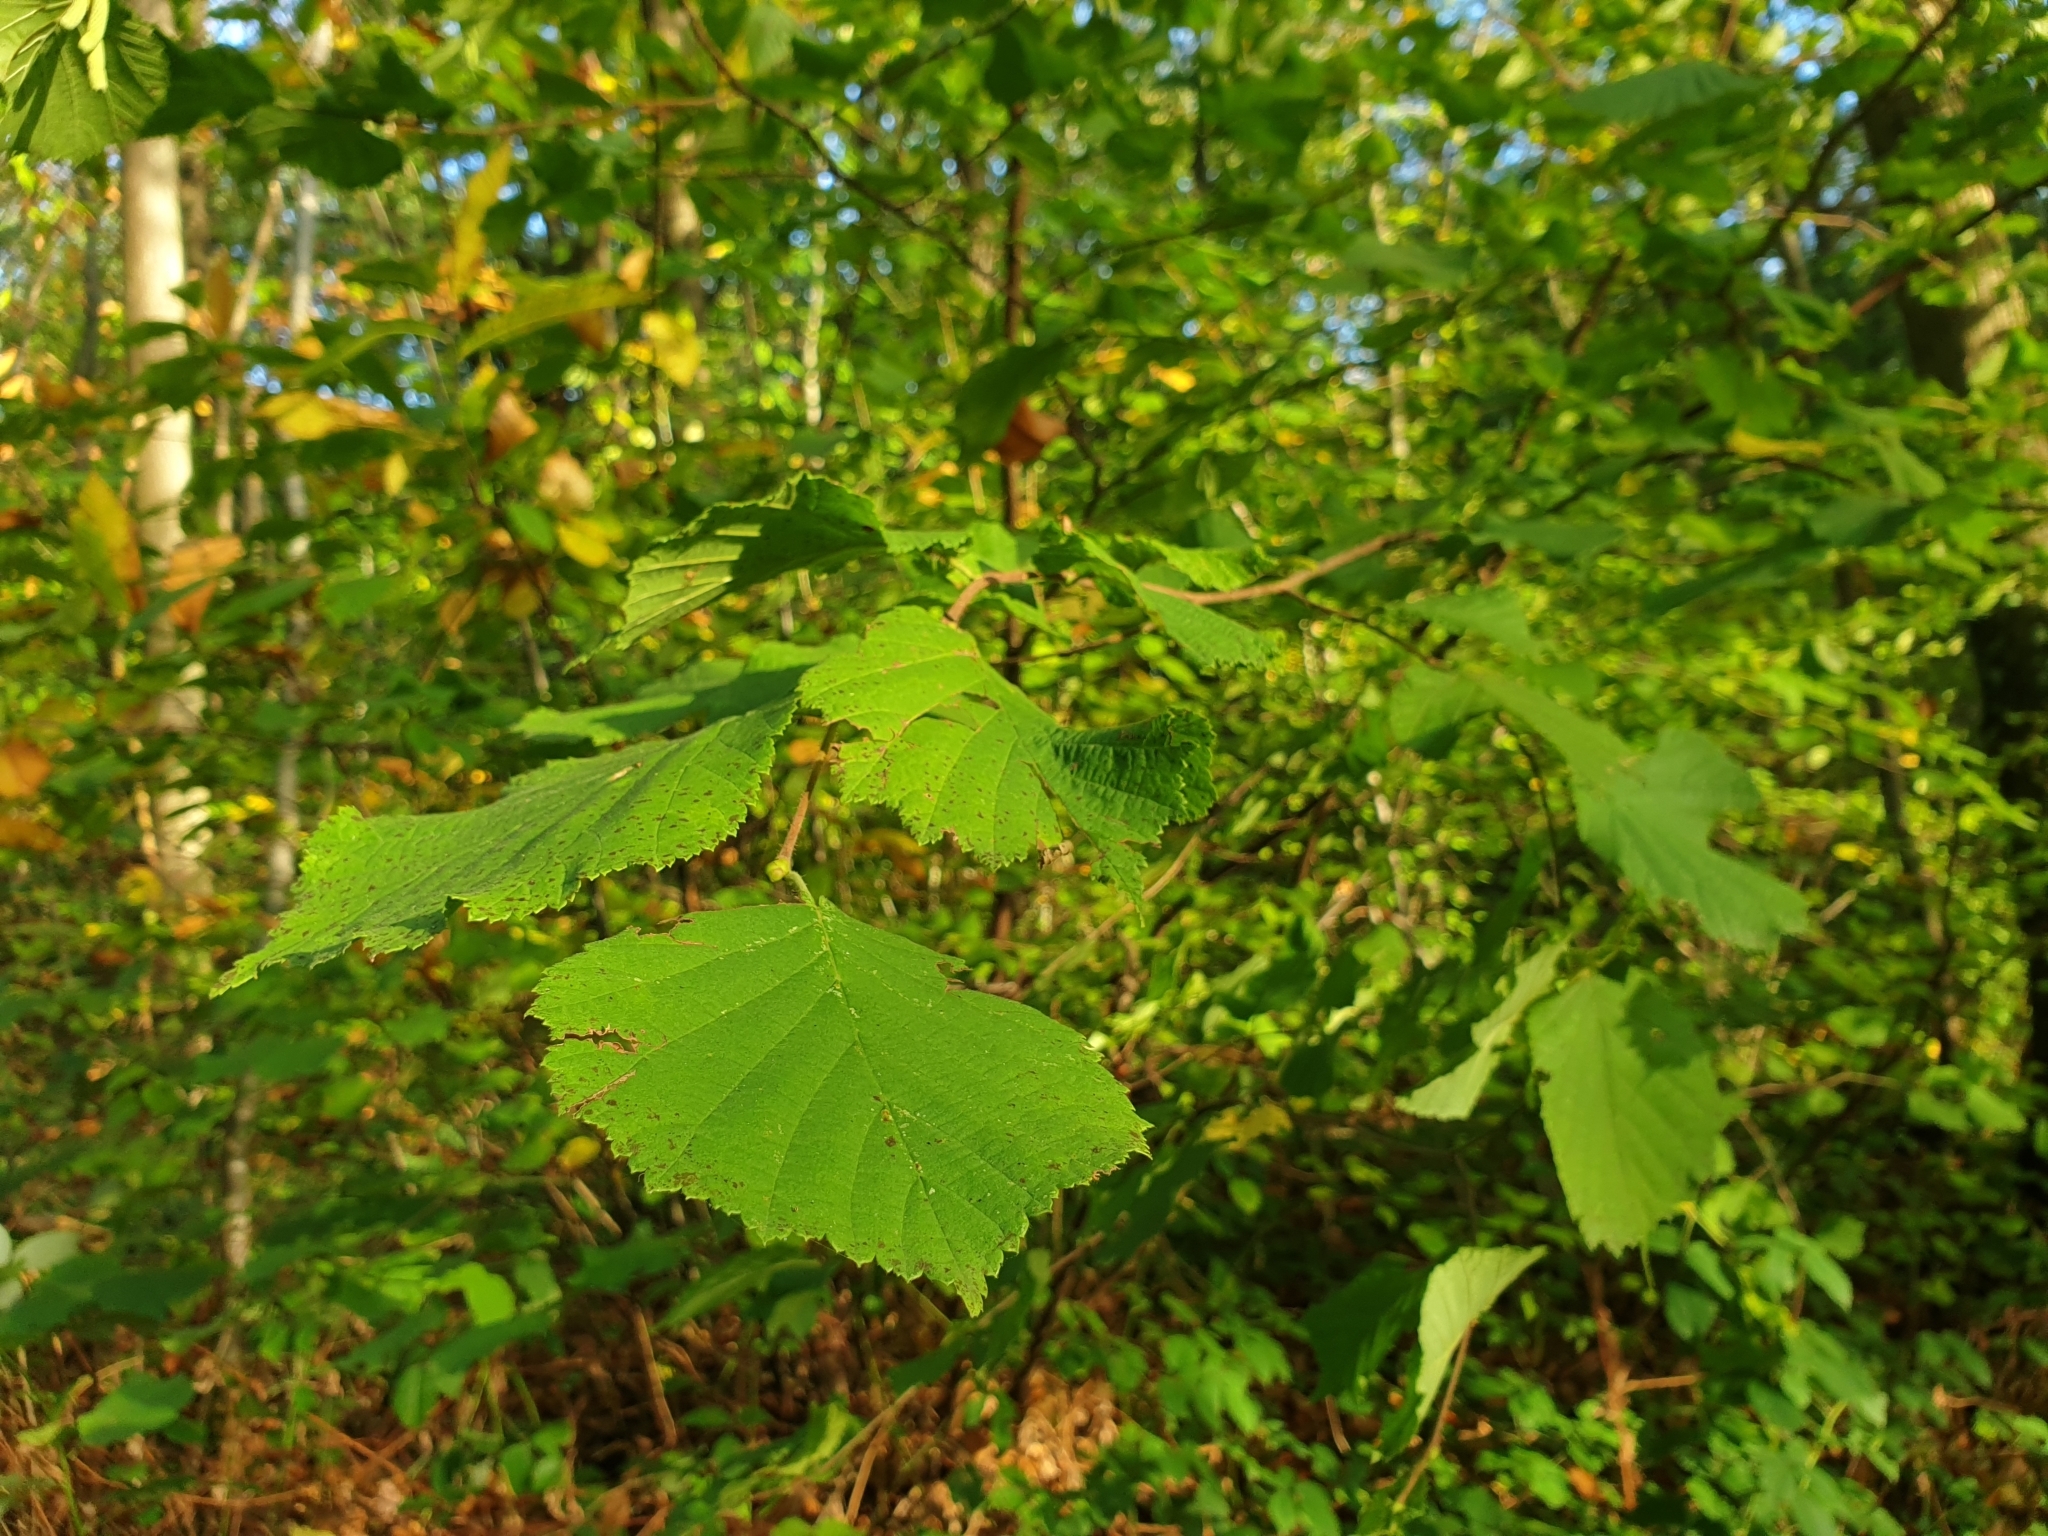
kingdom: Plantae
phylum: Tracheophyta
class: Magnoliopsida
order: Fagales
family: Betulaceae
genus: Corylus
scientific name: Corylus avellana
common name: European hazel
